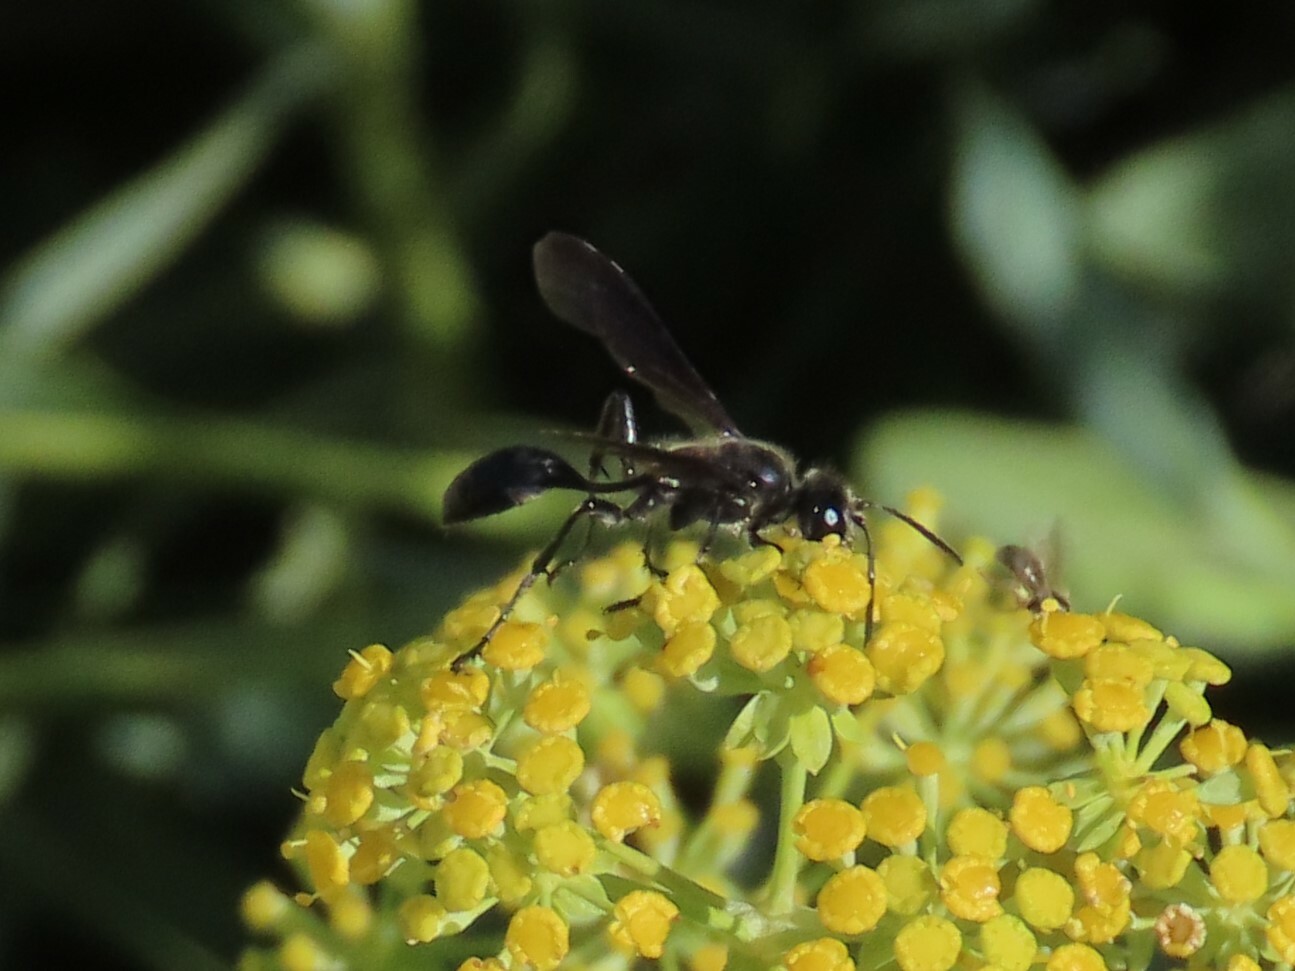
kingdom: Animalia
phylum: Arthropoda
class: Insecta
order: Hymenoptera
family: Sphecidae
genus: Isodontia
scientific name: Isodontia mexicana
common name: Mud dauber
